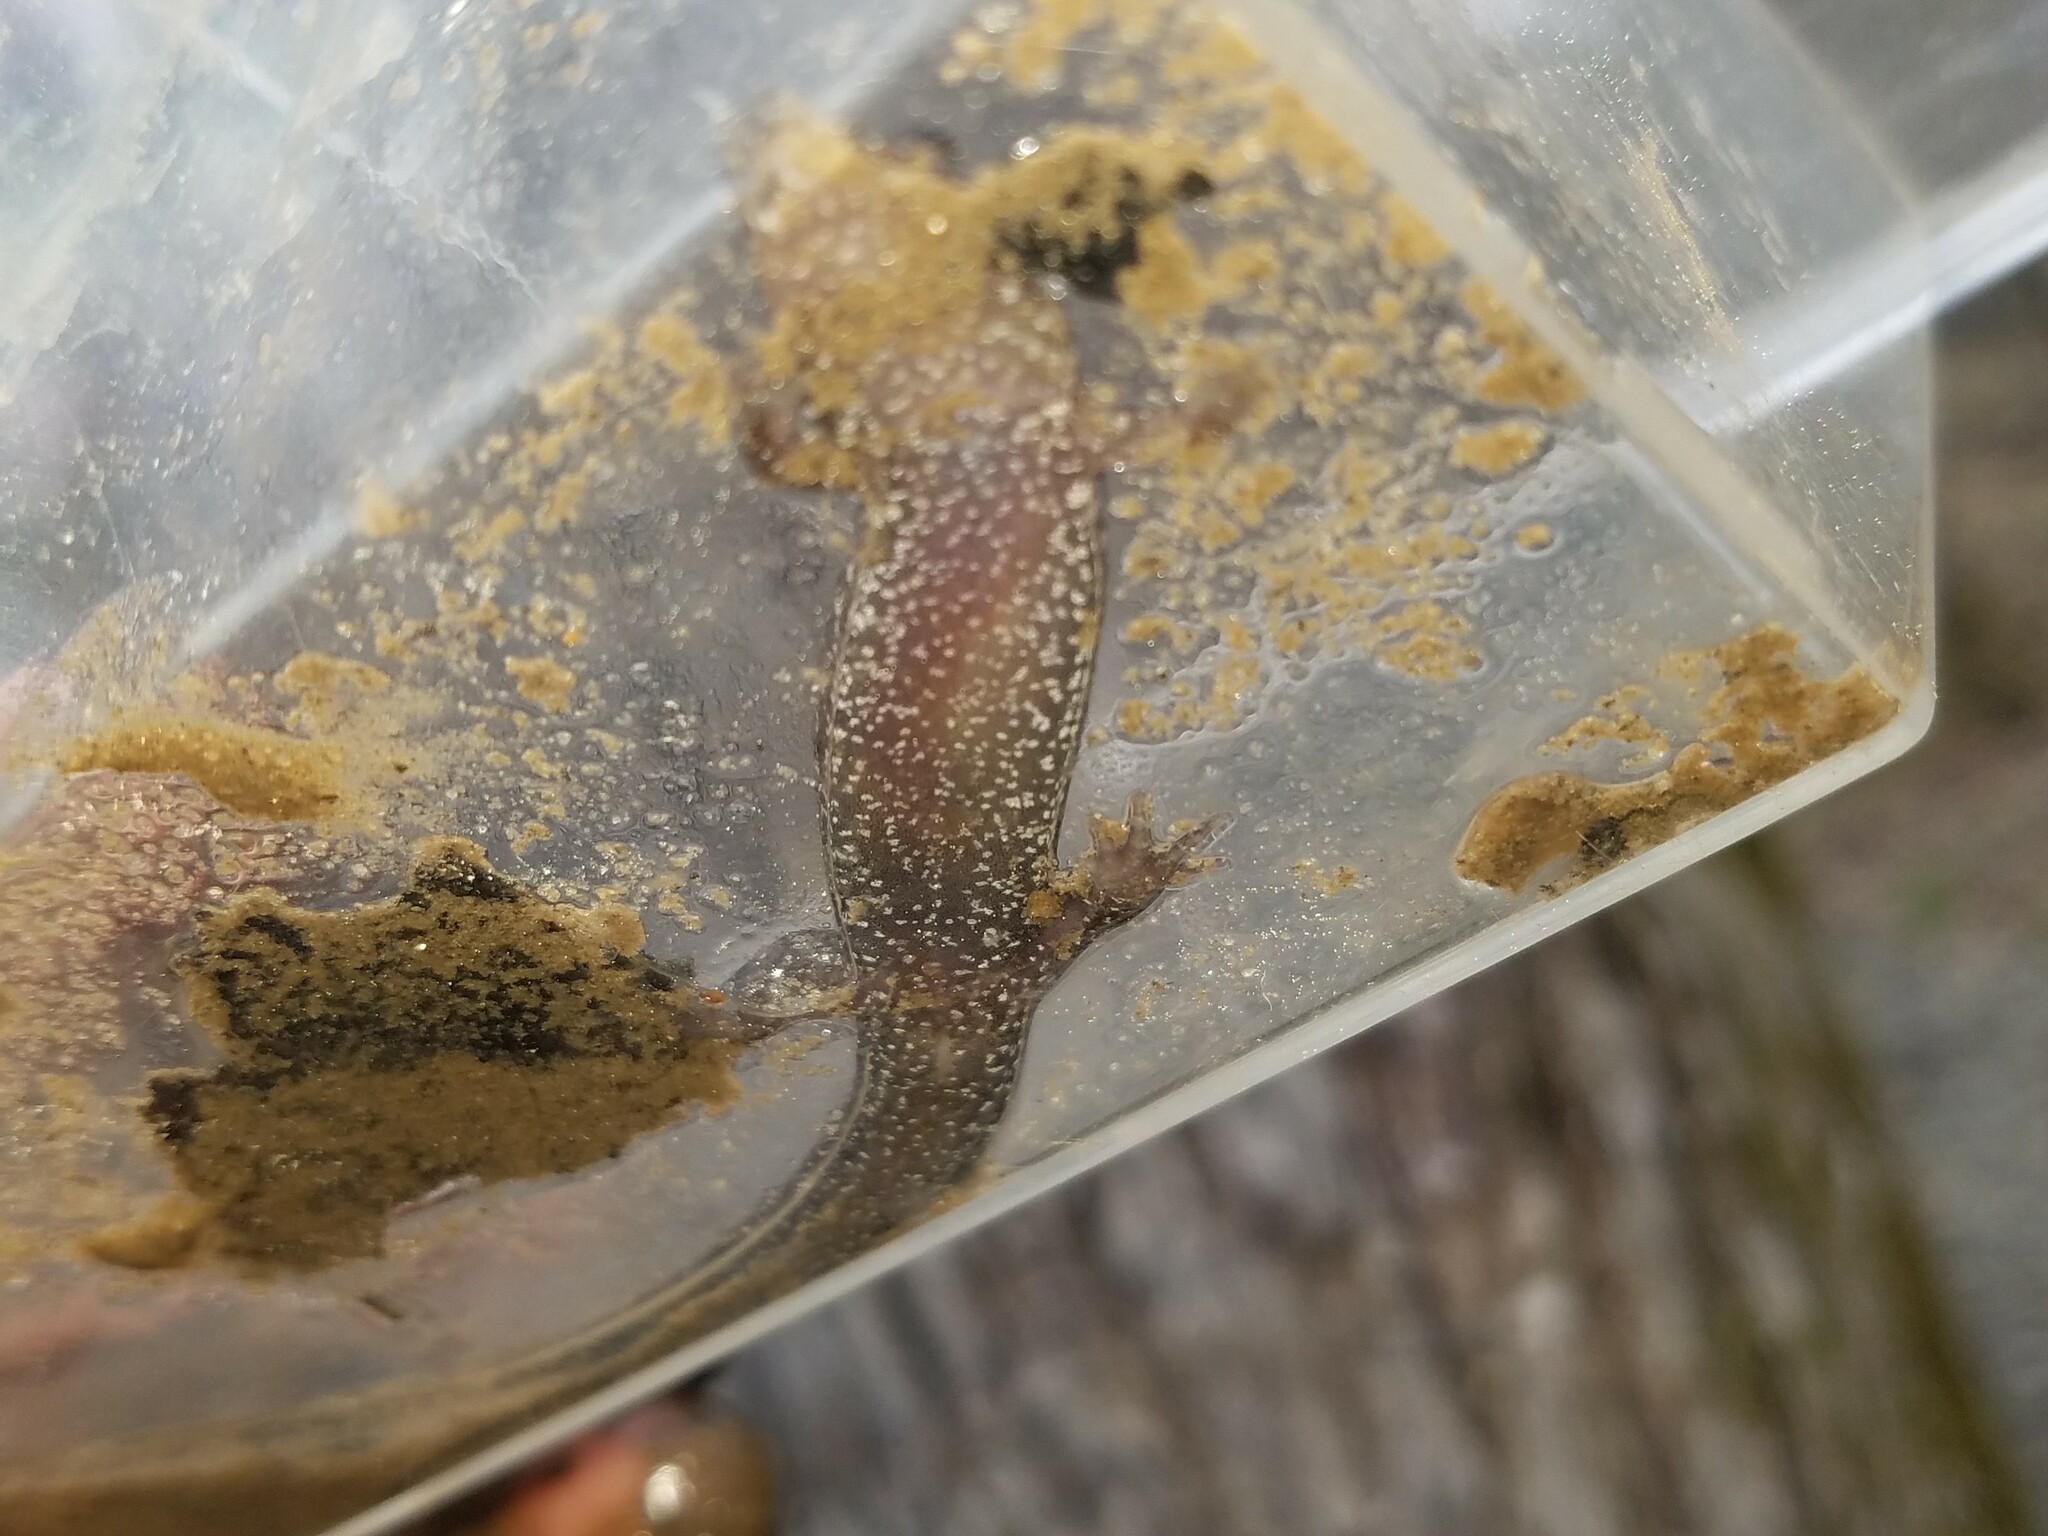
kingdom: Animalia
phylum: Chordata
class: Amphibia
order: Caudata
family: Plethodontidae
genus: Desmognathus
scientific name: Desmognathus
